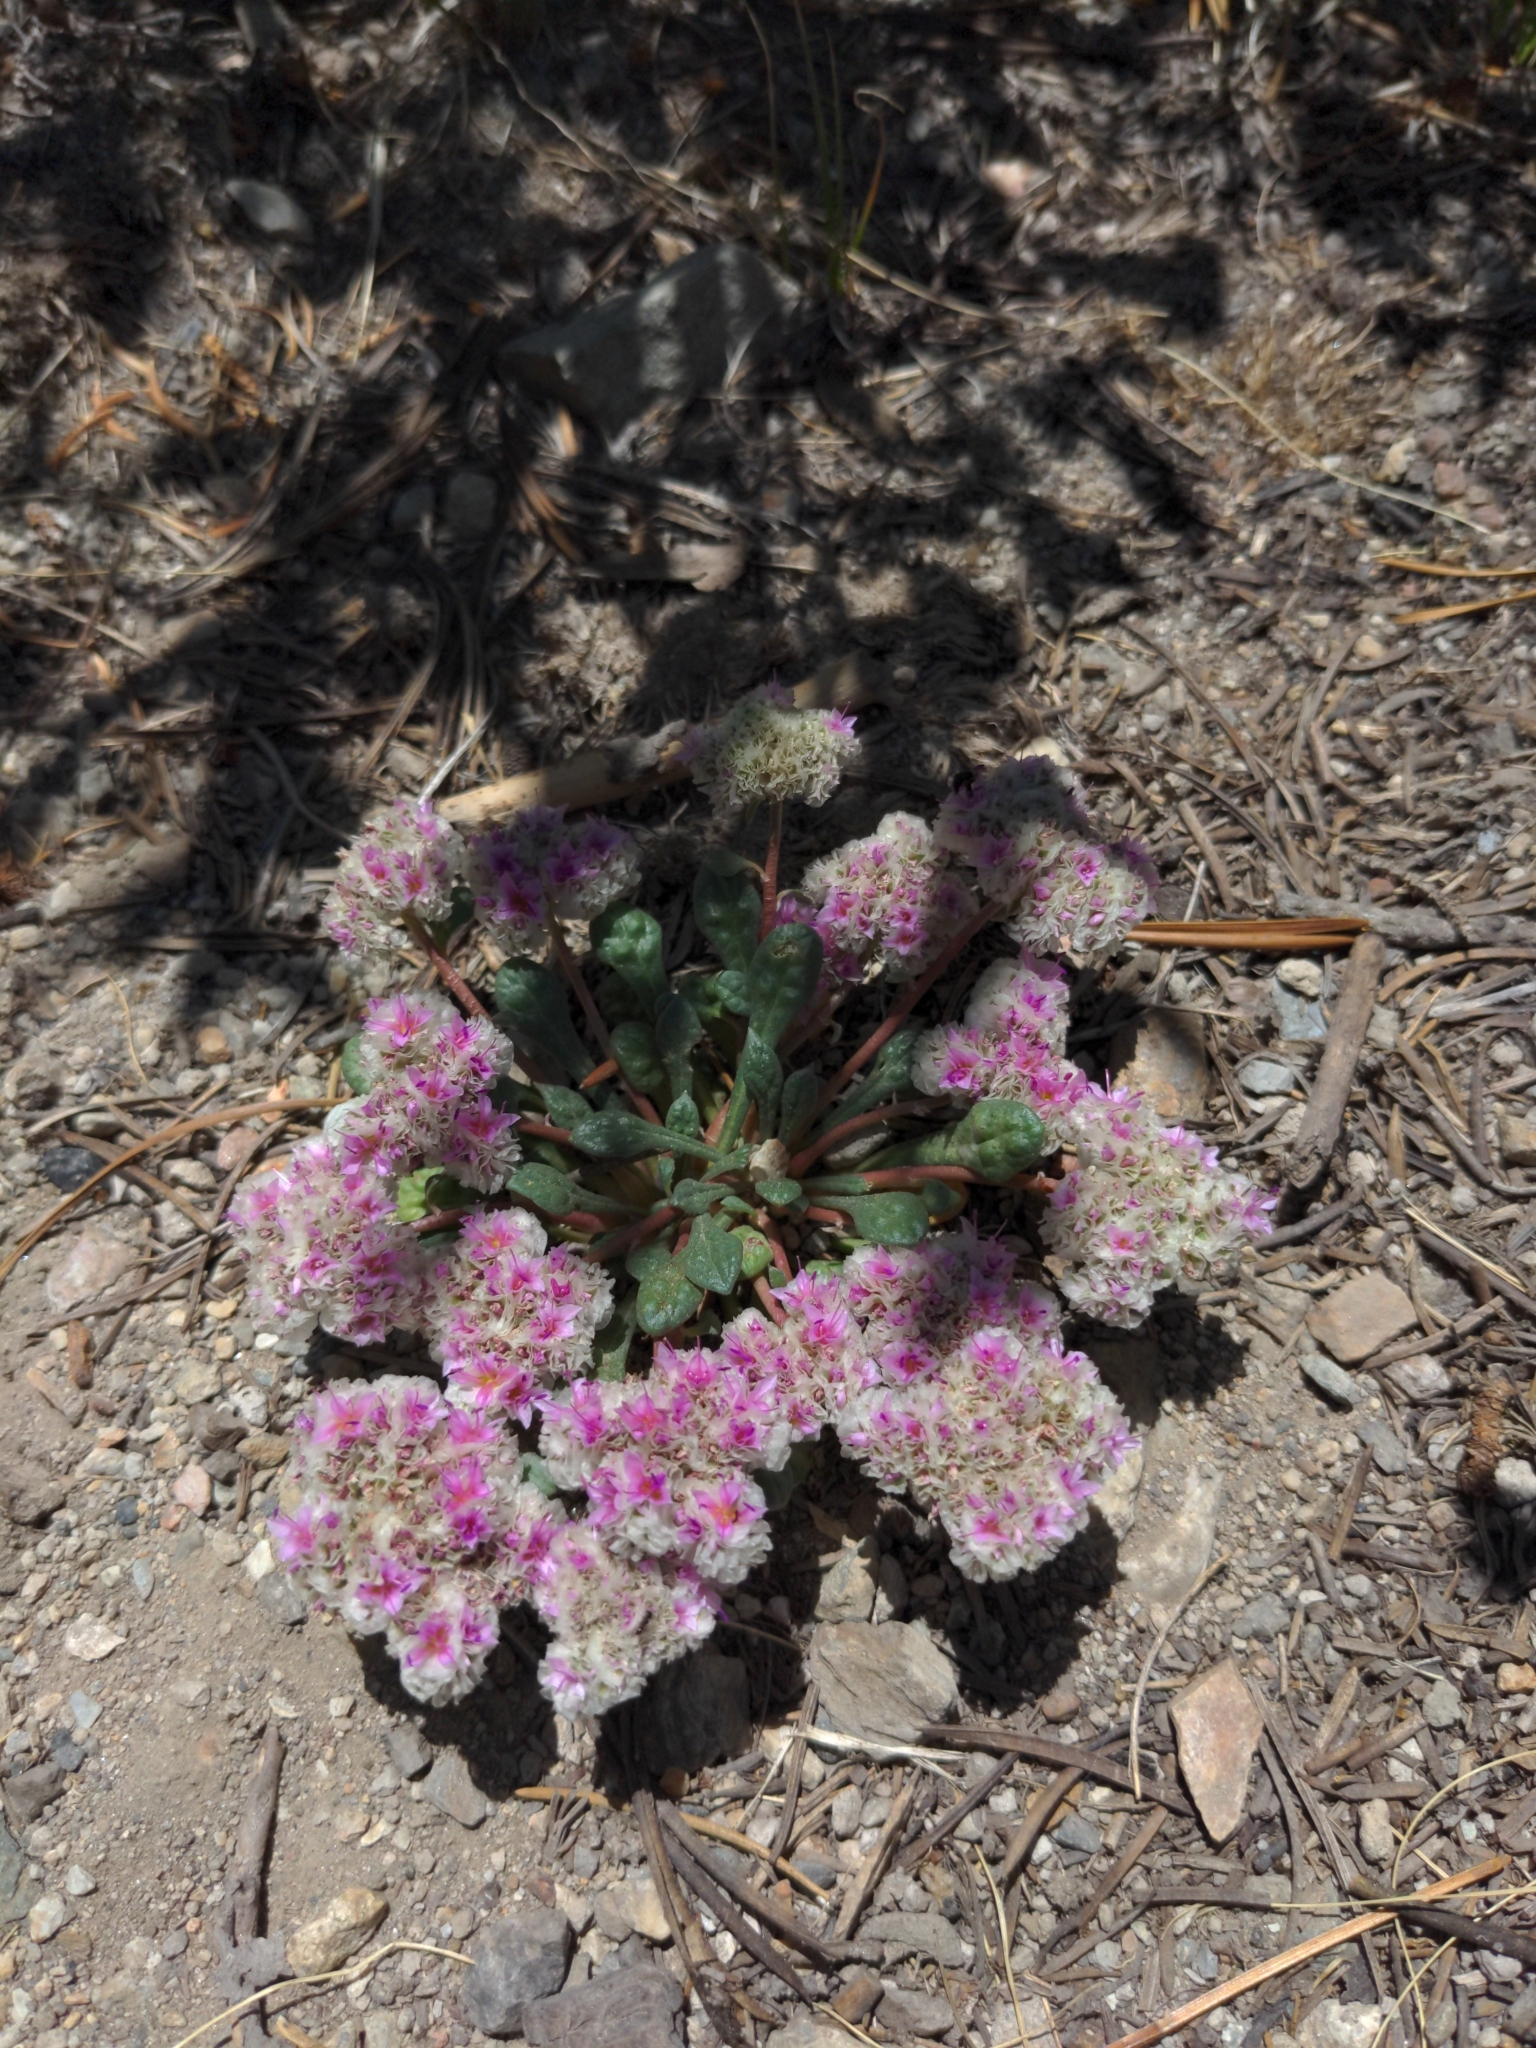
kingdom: Plantae
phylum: Tracheophyta
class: Magnoliopsida
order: Caryophyllales
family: Montiaceae
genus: Calyptridium
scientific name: Calyptridium monospermum
